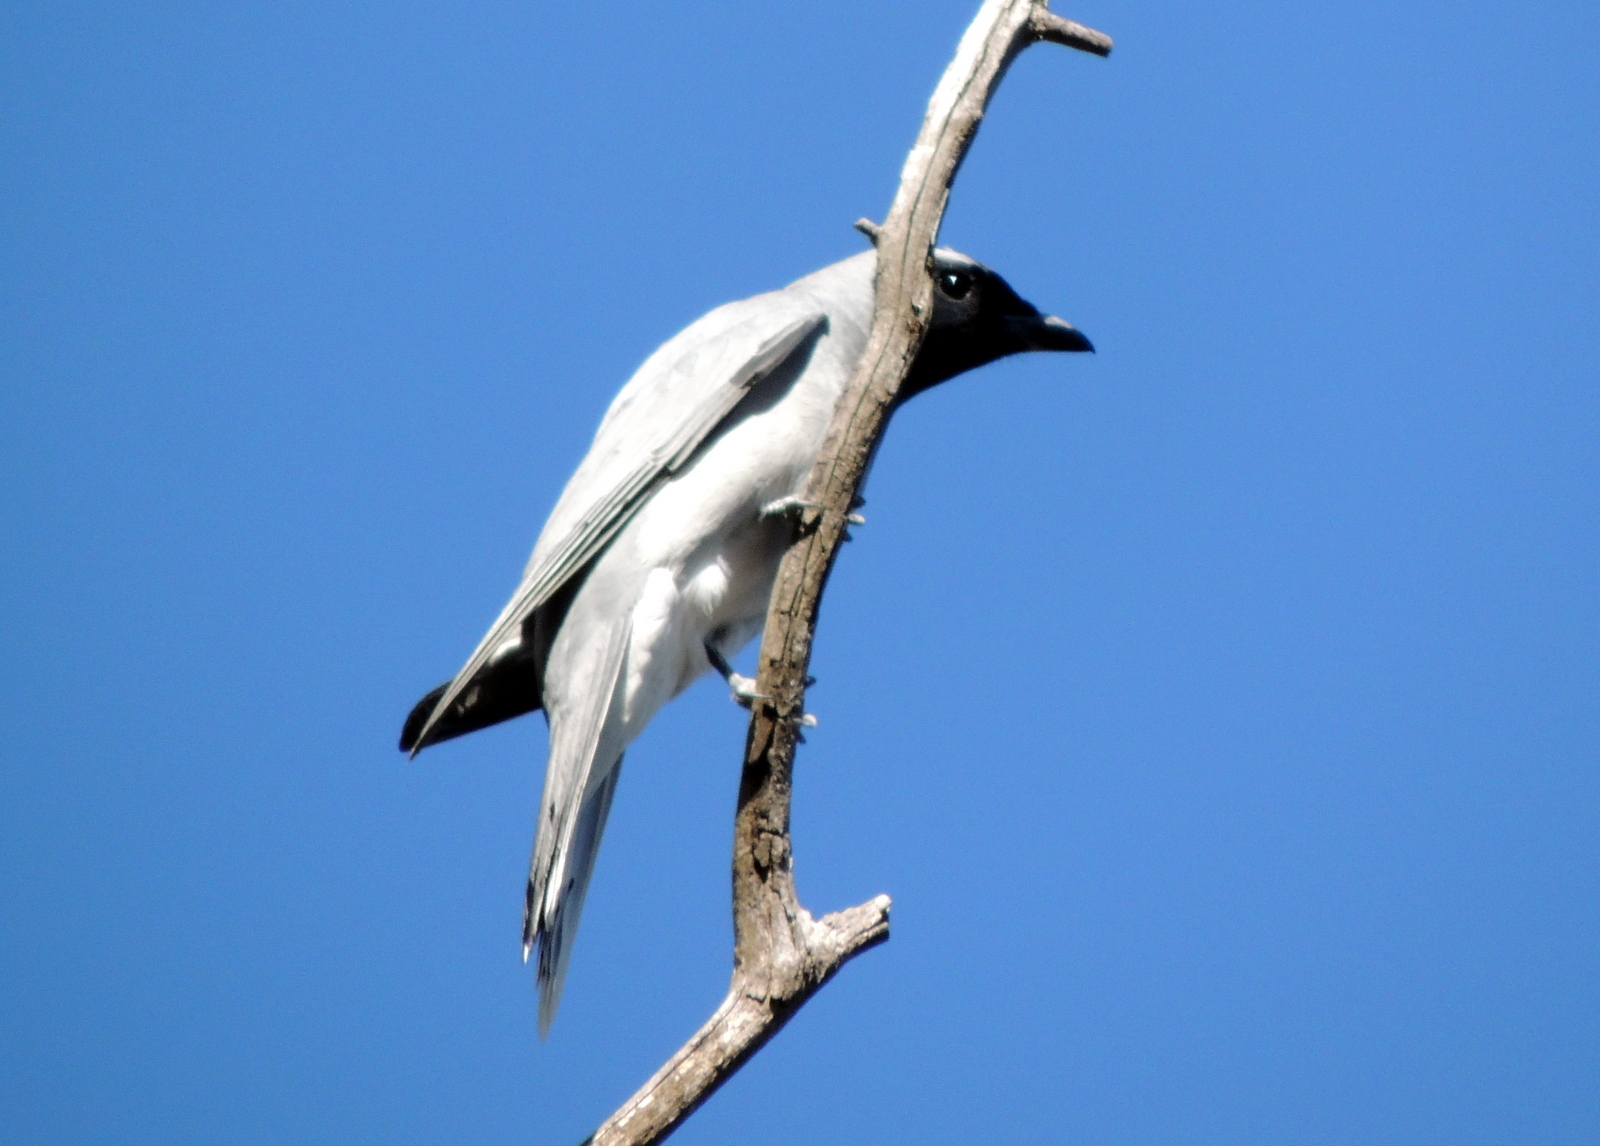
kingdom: Animalia
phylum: Chordata
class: Aves
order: Passeriformes
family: Campephagidae
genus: Coracina
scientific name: Coracina novaehollandiae
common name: Black-faced cuckooshrike
